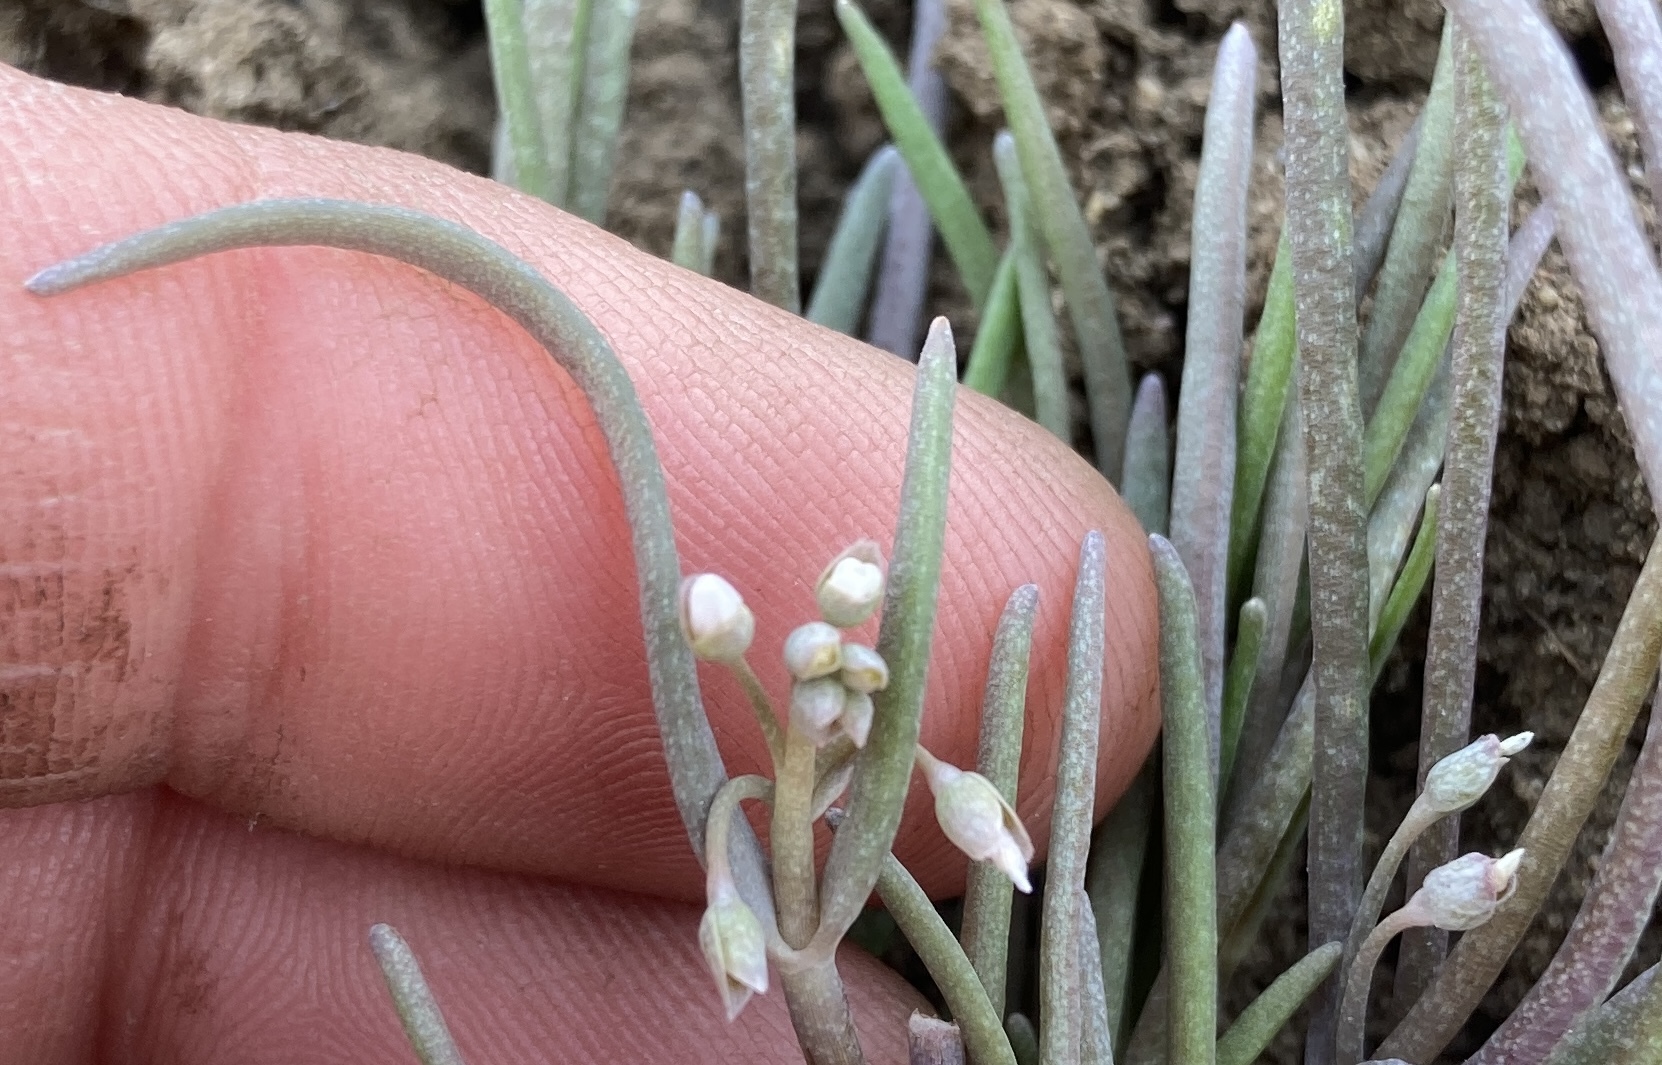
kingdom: Plantae
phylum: Tracheophyta
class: Magnoliopsida
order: Caryophyllales
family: Montiaceae
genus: Claytonia
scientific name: Claytonia exigua
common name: Pale spring beauty
